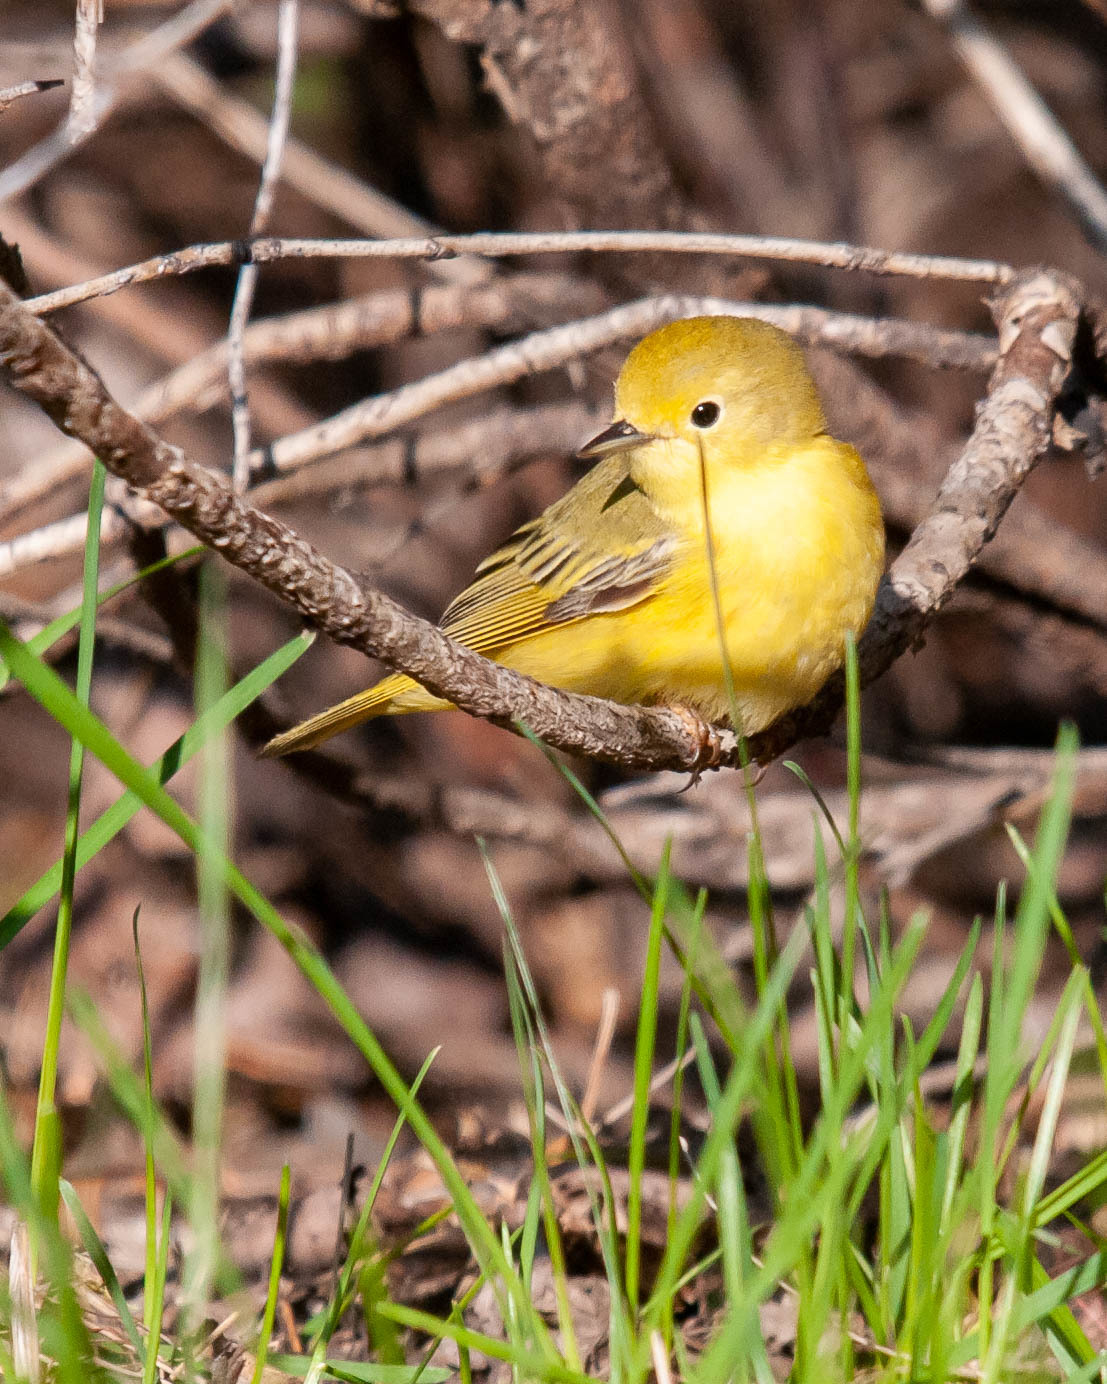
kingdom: Animalia
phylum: Chordata
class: Aves
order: Passeriformes
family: Parulidae
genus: Setophaga
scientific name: Setophaga petechia
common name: Yellow warbler
